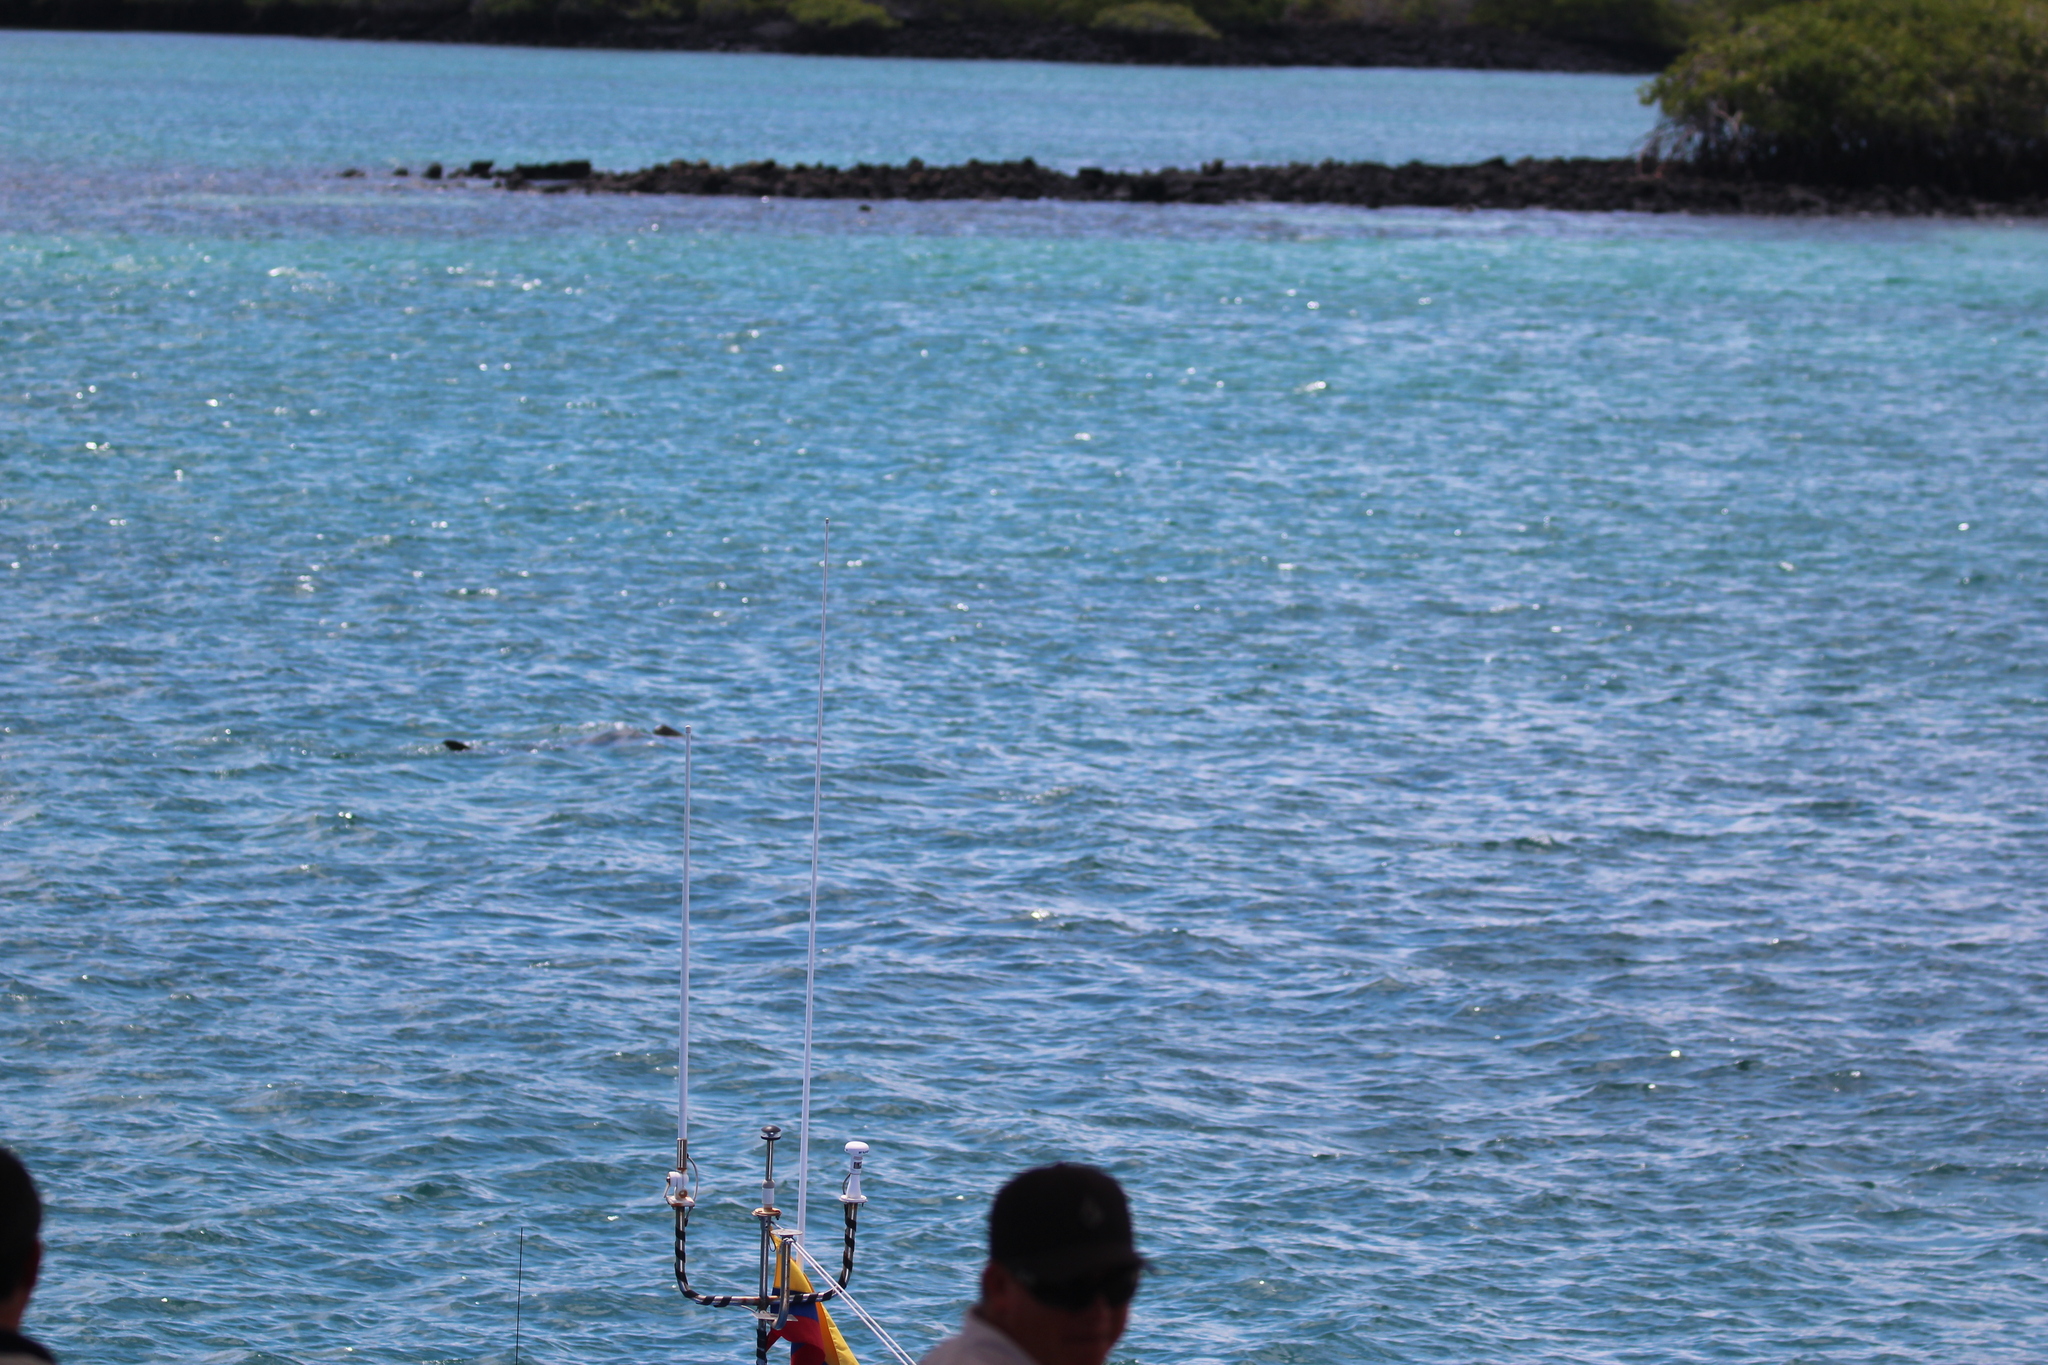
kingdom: Animalia
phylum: Chordata
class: Elasmobranchii
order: Carcharhiniformes
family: Carcharhinidae
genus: Galeocerdo
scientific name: Galeocerdo cuvier
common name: Tiger shark
